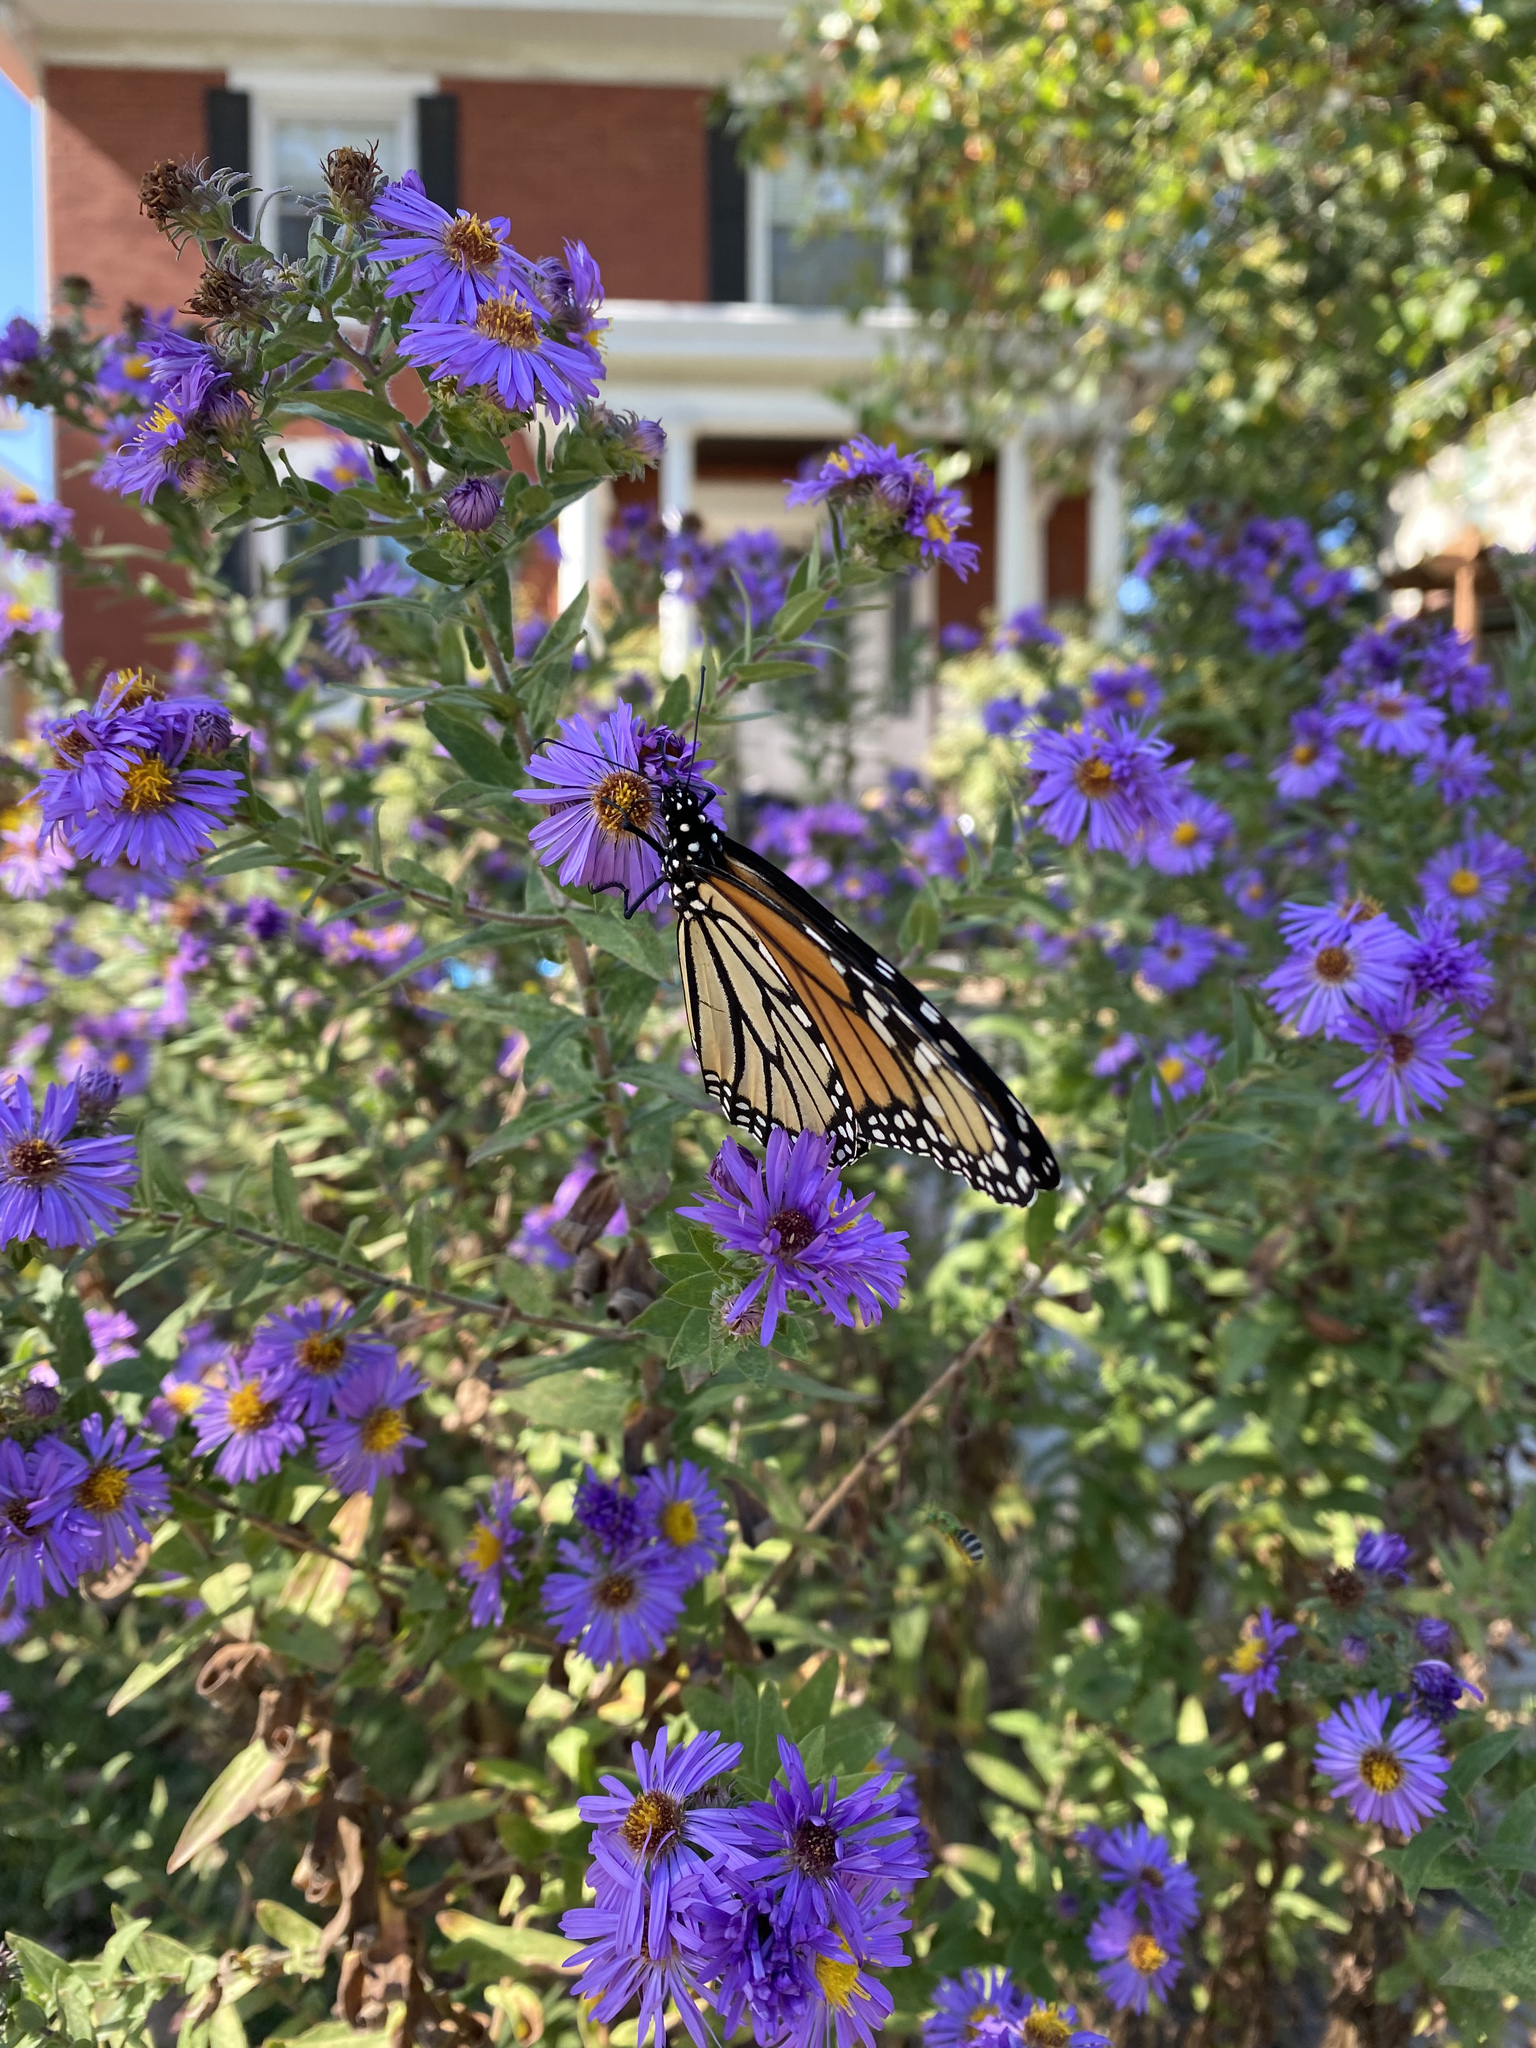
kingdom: Animalia
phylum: Arthropoda
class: Insecta
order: Lepidoptera
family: Nymphalidae
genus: Danaus
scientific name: Danaus plexippus
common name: Monarch
